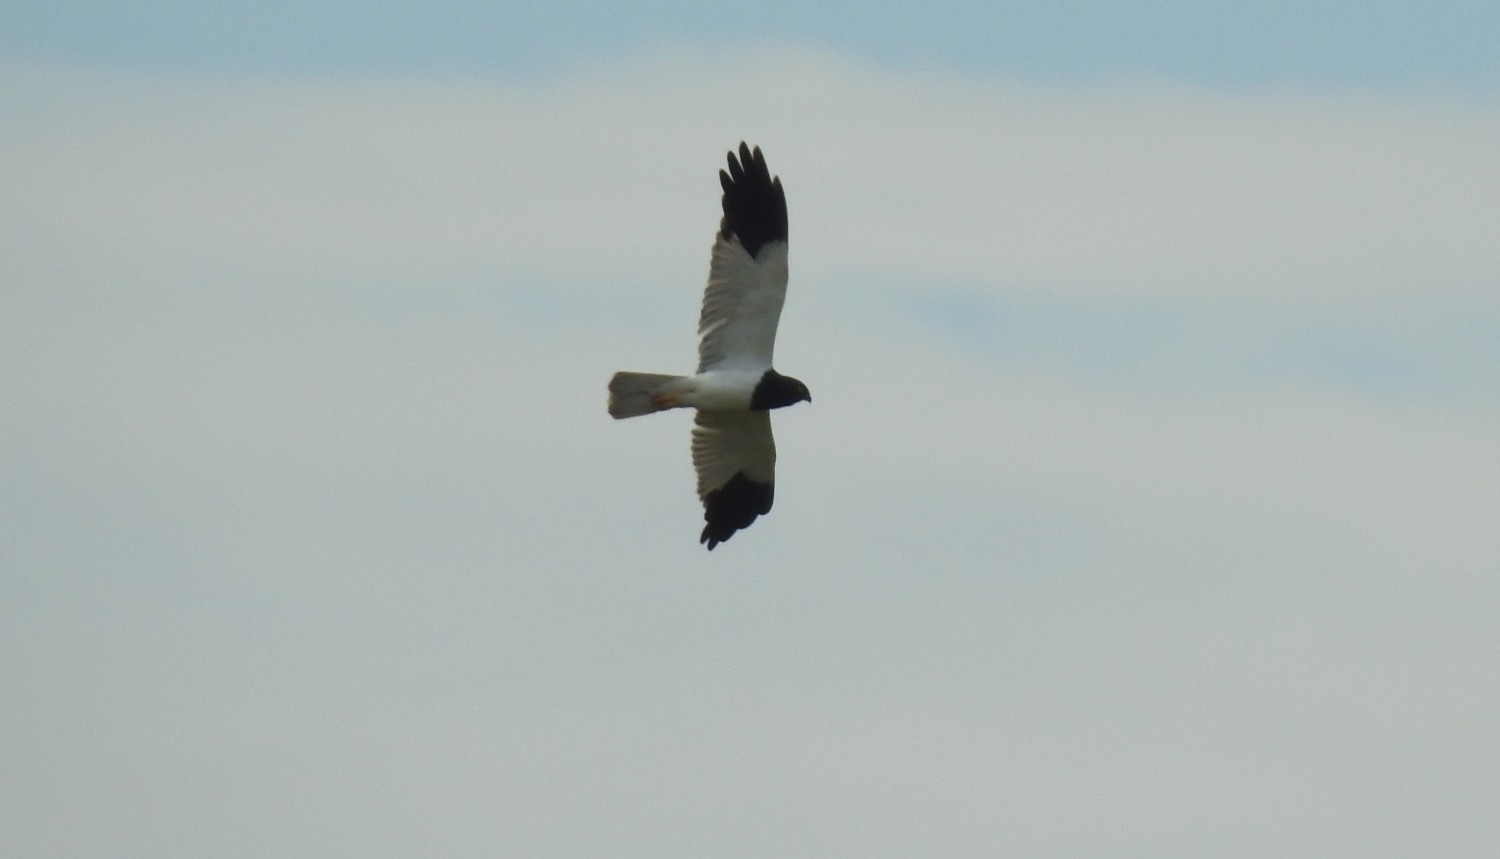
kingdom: Animalia
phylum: Chordata
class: Aves
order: Accipitriformes
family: Accipitridae
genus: Circus
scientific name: Circus melanoleucos
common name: Pied harrier
